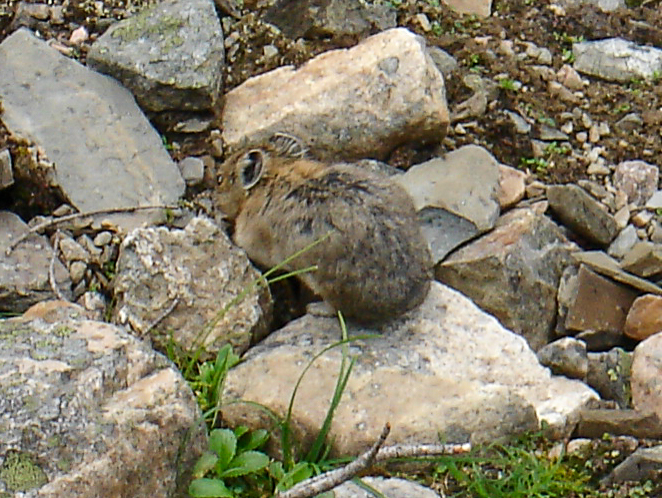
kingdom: Animalia
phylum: Chordata
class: Mammalia
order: Lagomorpha
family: Ochotonidae
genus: Ochotona
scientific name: Ochotona princeps
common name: American pika
